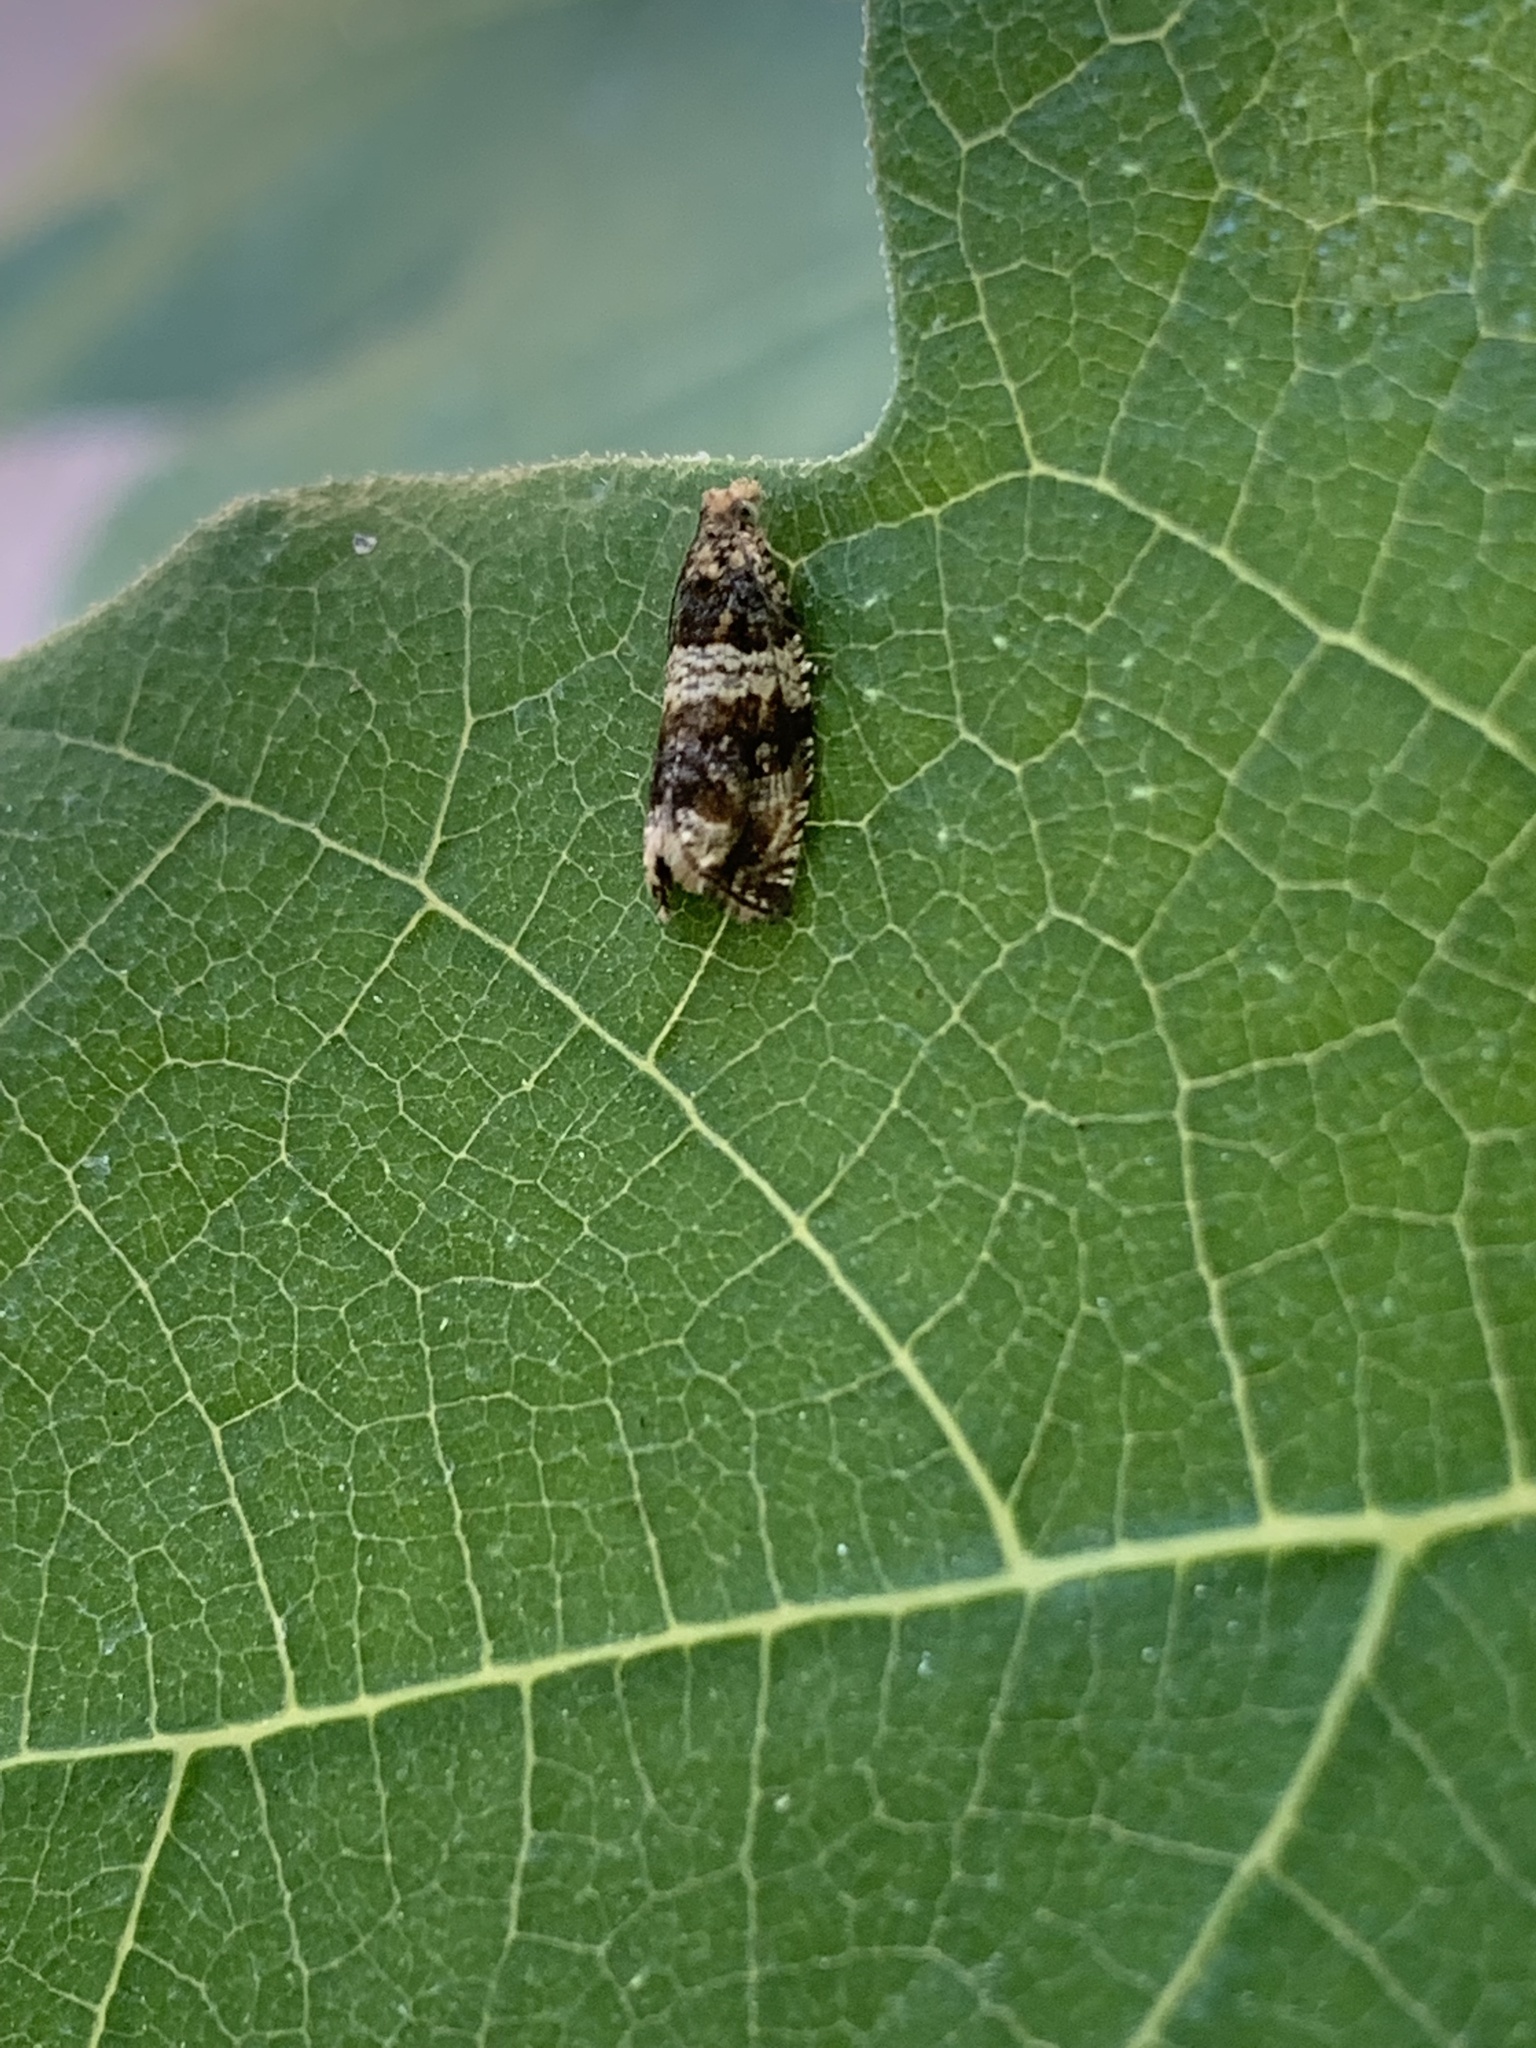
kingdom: Animalia
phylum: Arthropoda
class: Insecta
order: Lepidoptera
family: Tortricidae
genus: Celypha
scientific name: Celypha cespitana
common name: Thyme marble
